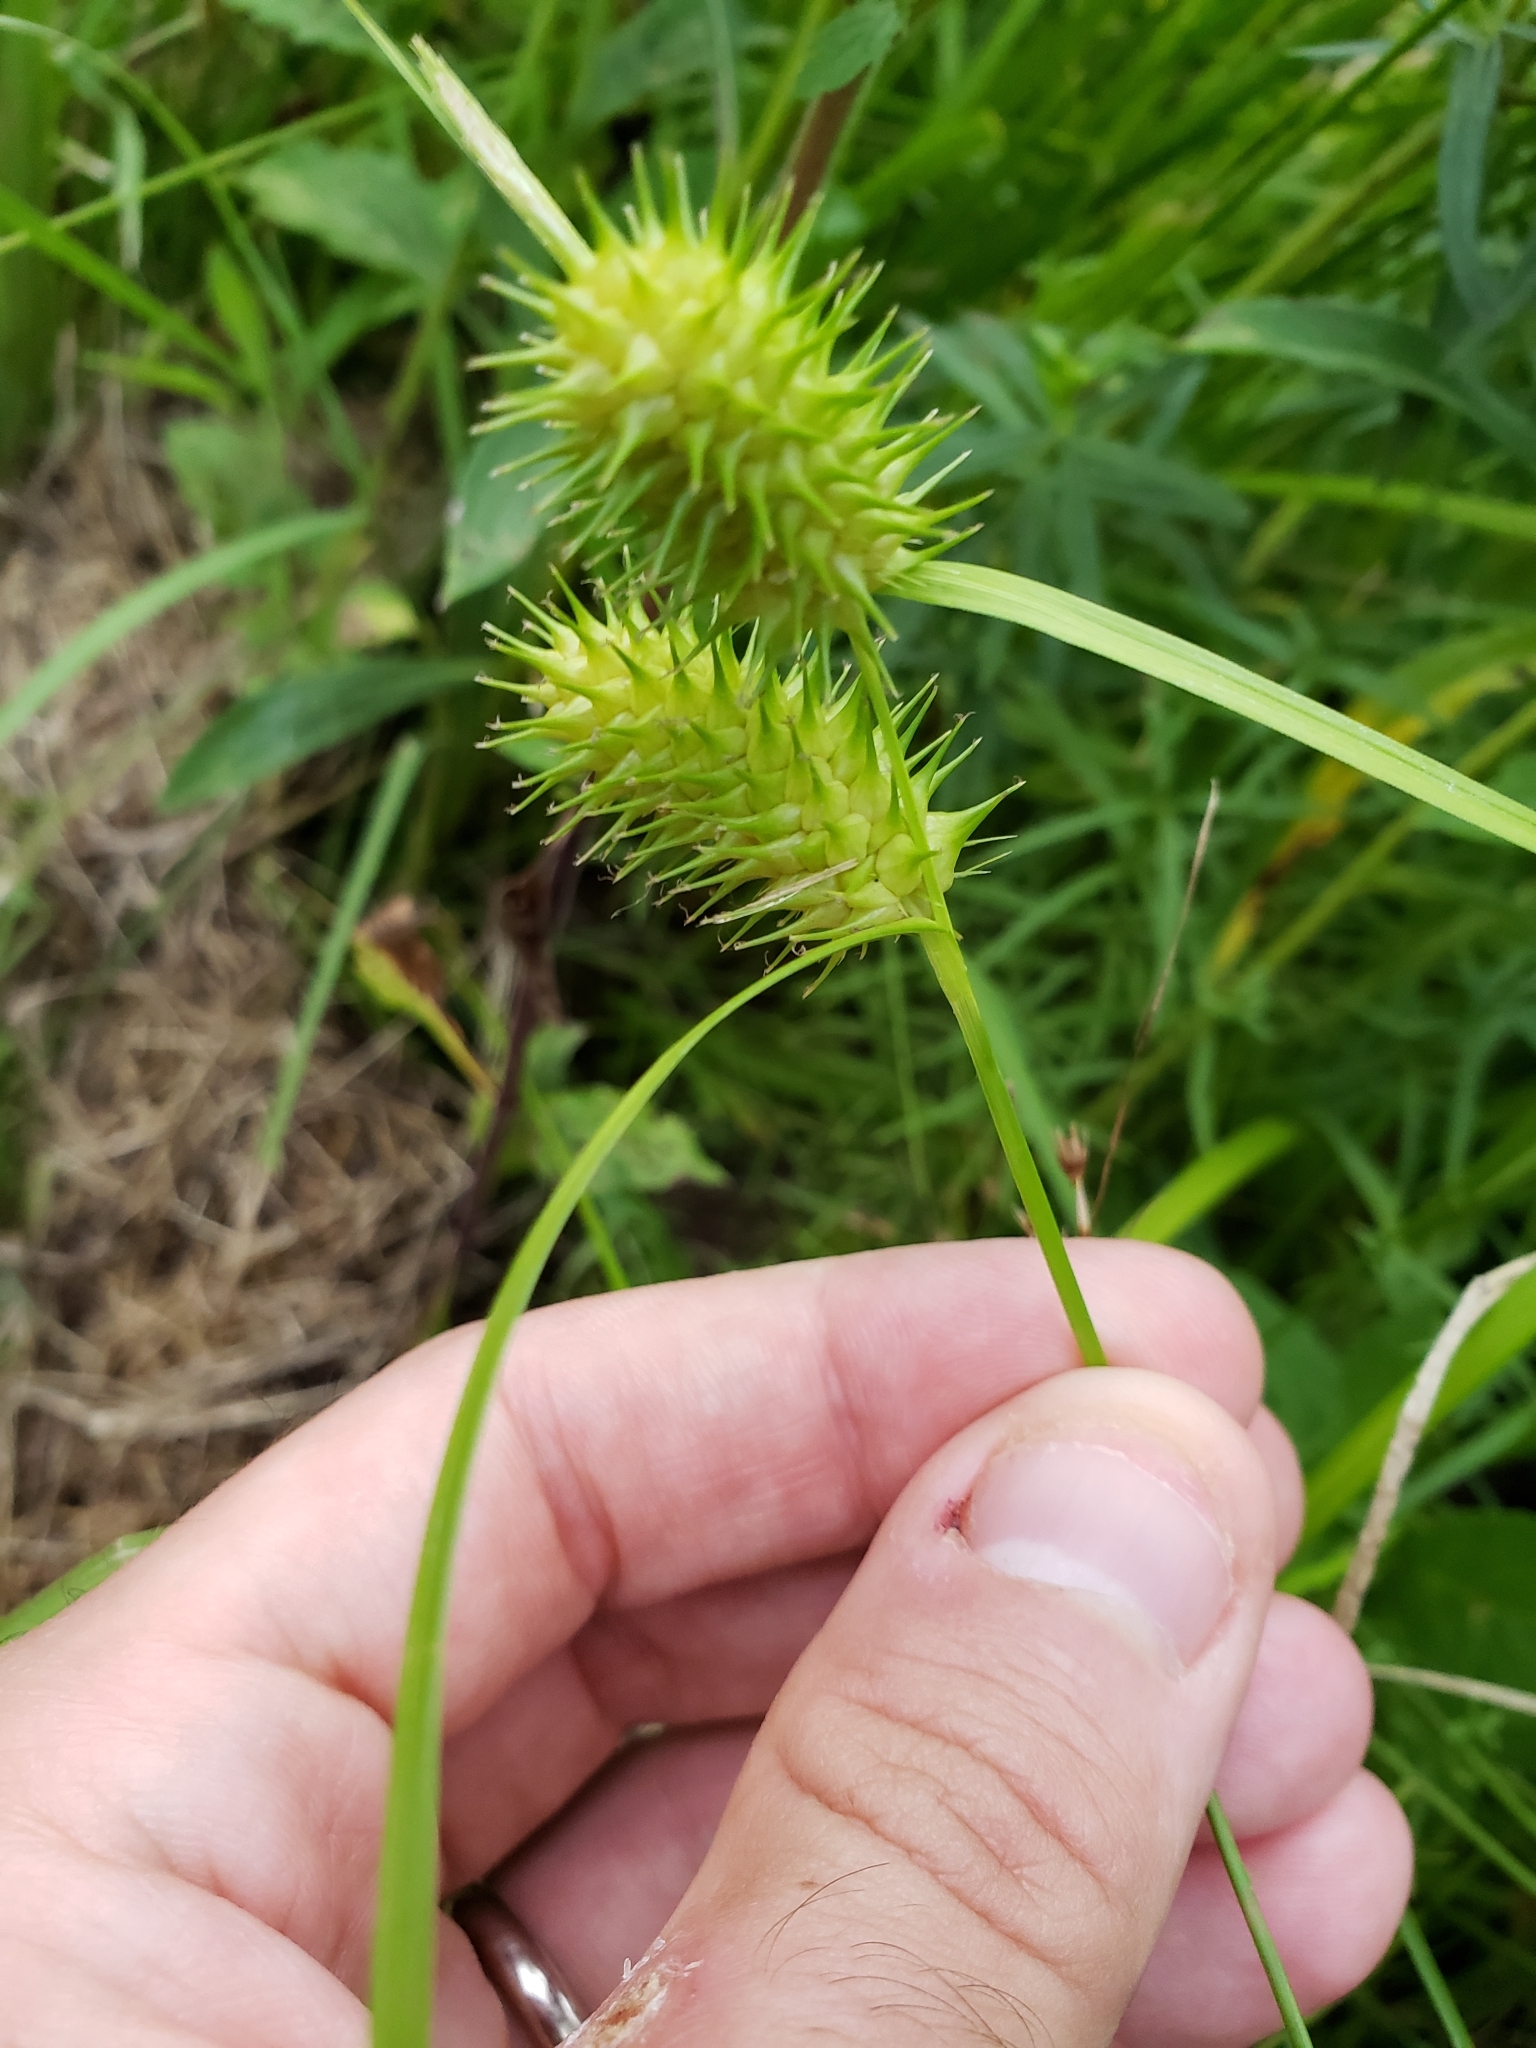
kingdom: Plantae
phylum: Tracheophyta
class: Liliopsida
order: Poales
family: Cyperaceae
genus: Carex
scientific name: Carex lurida
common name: Sallow sedge
